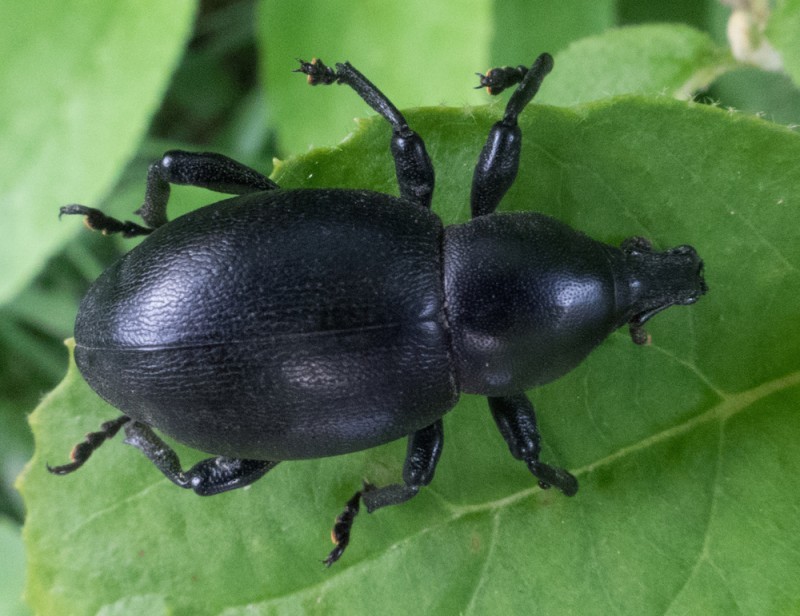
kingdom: Animalia
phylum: Arthropoda
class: Insecta
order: Coleoptera
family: Curculionidae
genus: Liparus
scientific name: Liparus dirus
